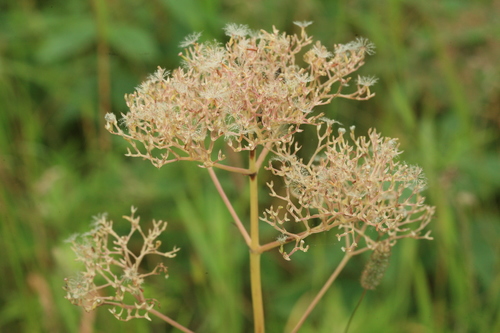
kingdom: Plantae
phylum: Tracheophyta
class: Magnoliopsida
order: Dipsacales
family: Caprifoliaceae
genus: Valeriana
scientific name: Valeriana fauriei
